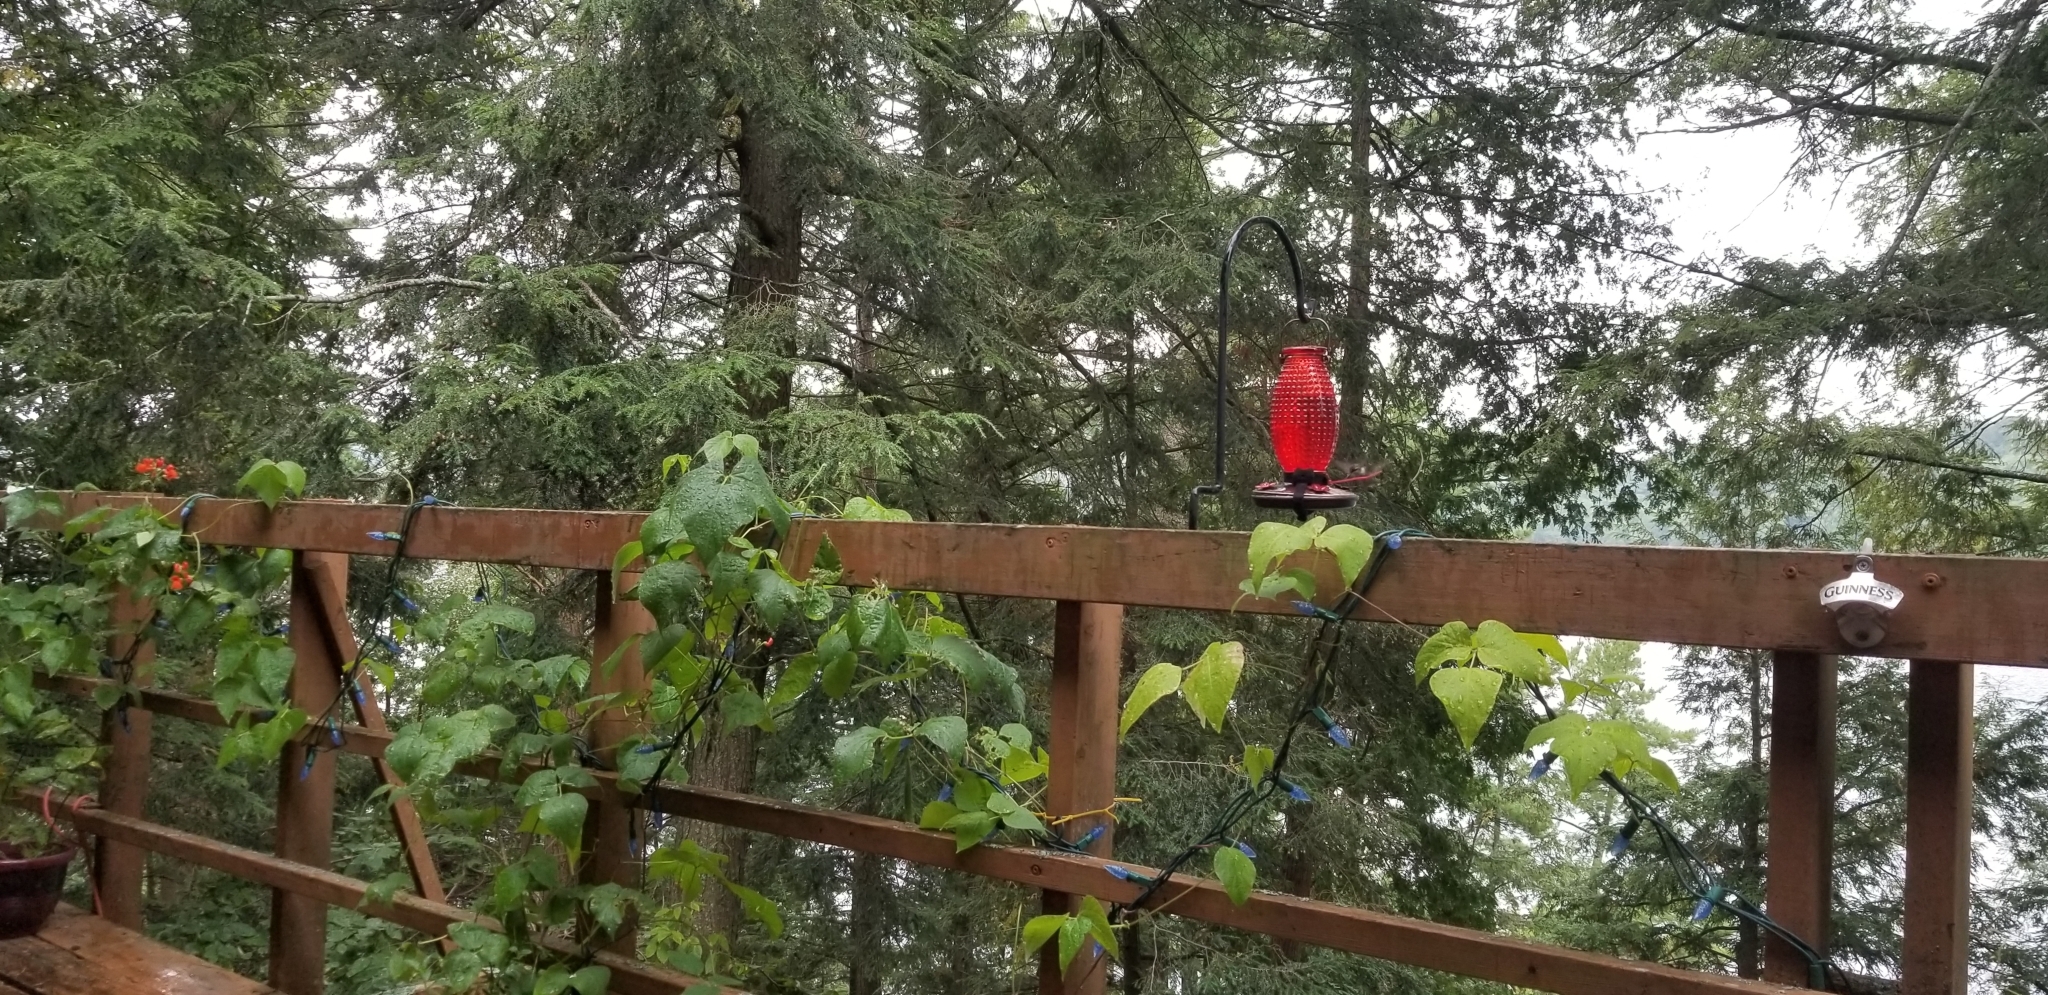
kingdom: Animalia
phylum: Chordata
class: Aves
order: Apodiformes
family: Trochilidae
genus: Archilochus
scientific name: Archilochus colubris
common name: Ruby-throated hummingbird
